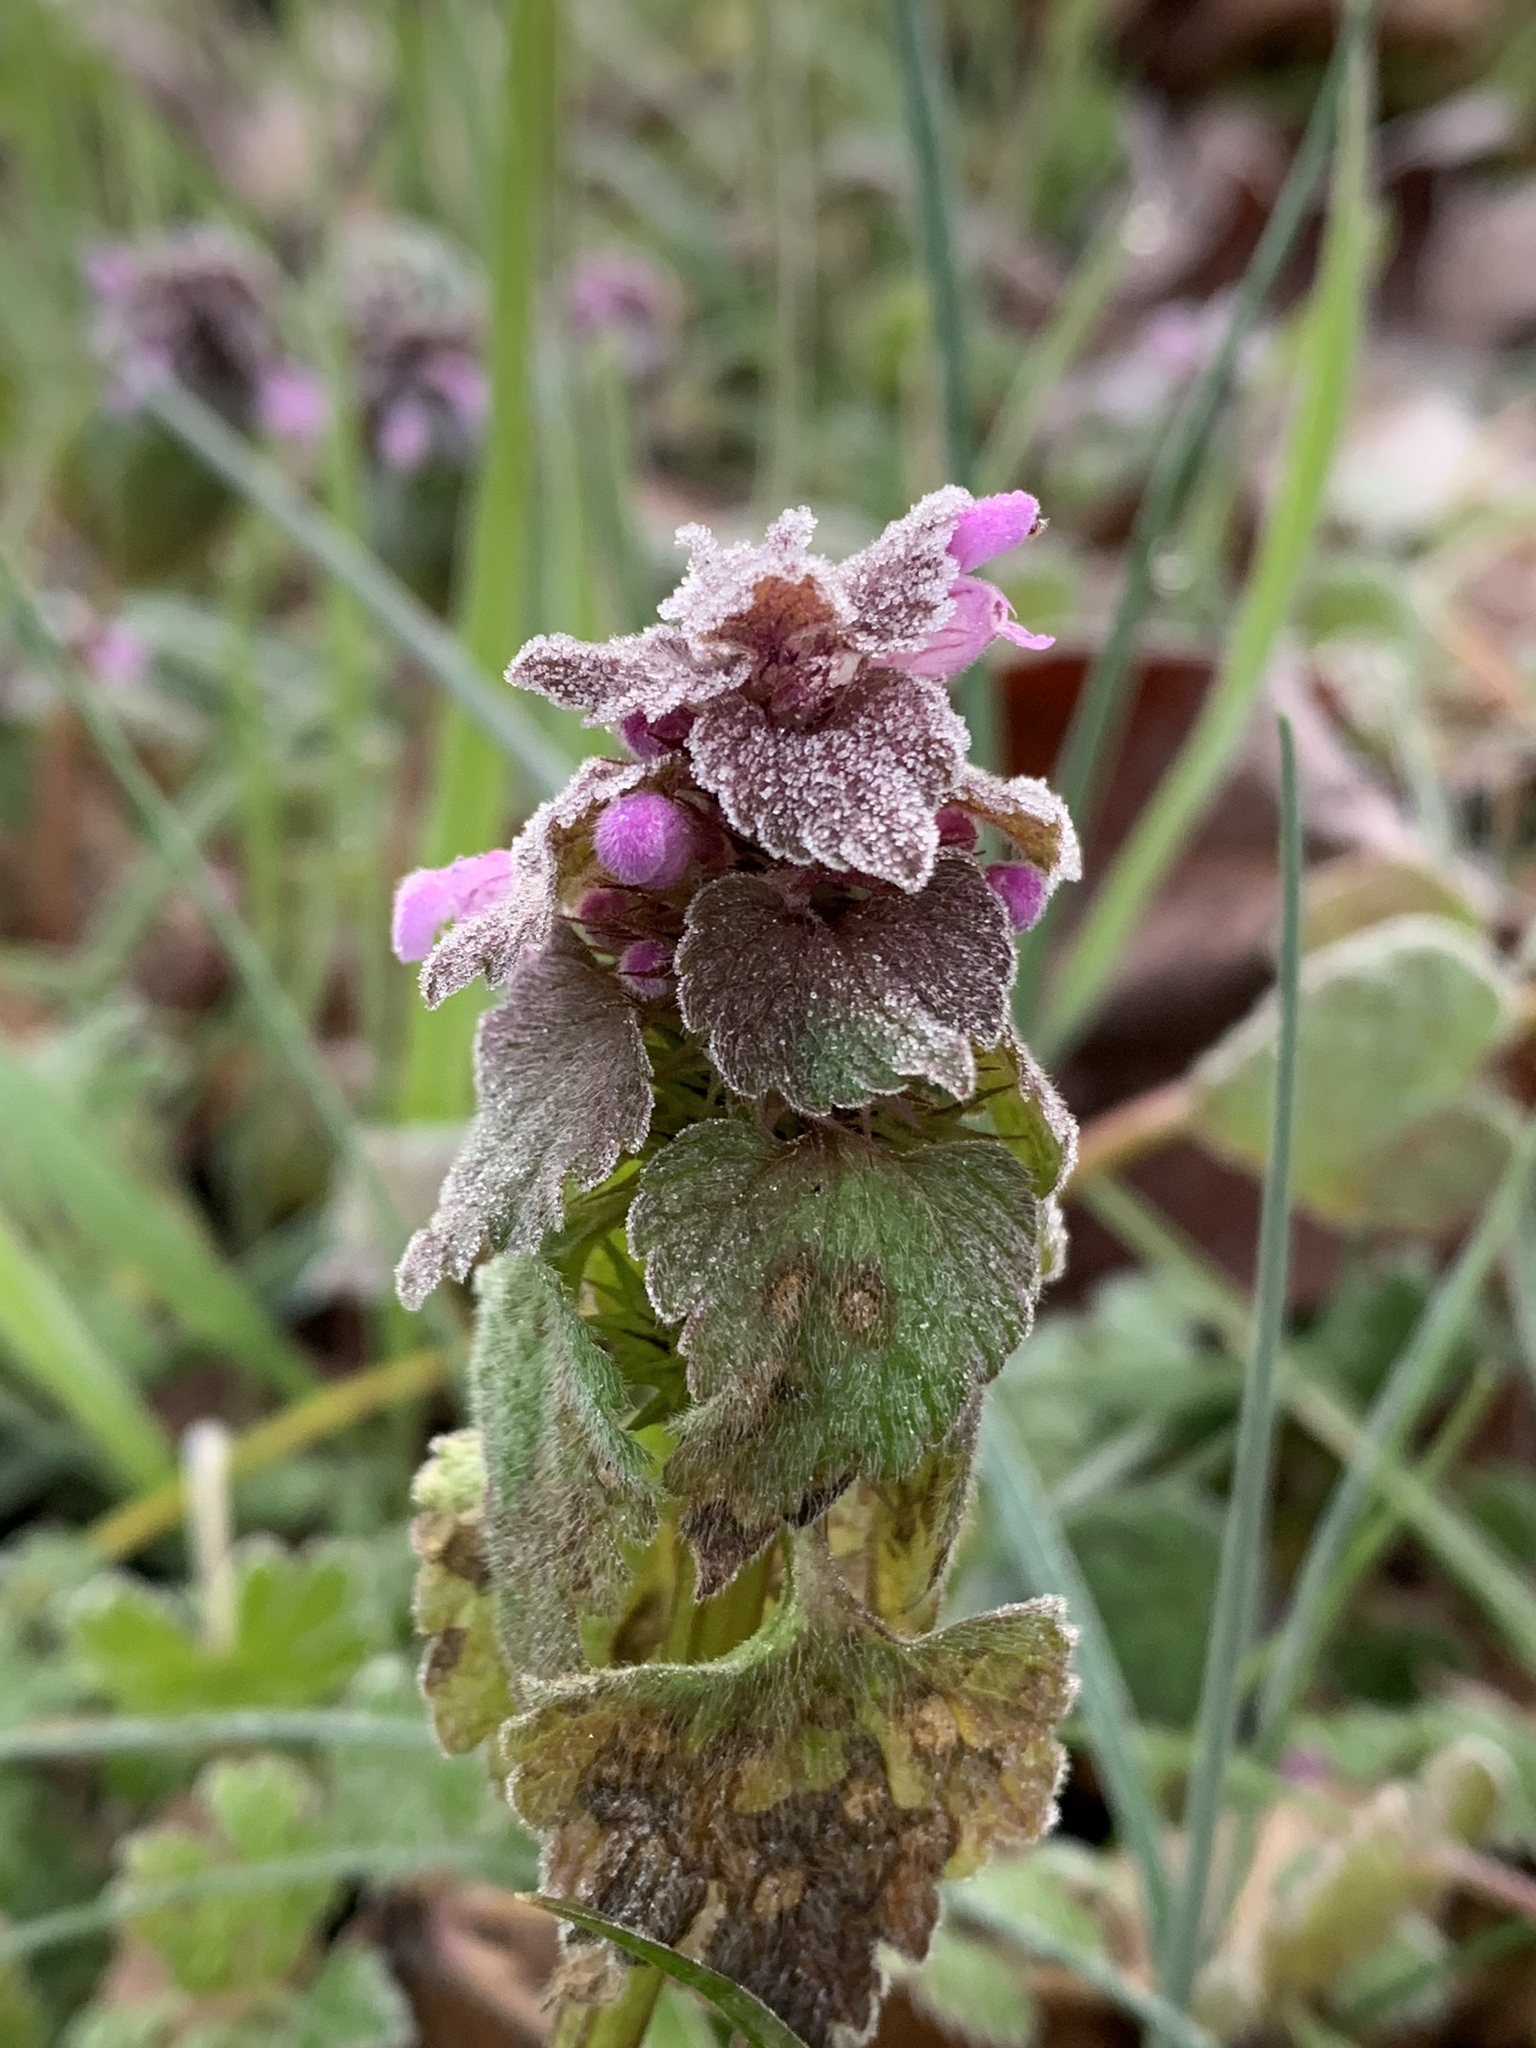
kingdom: Plantae
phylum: Tracheophyta
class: Magnoliopsida
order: Lamiales
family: Lamiaceae
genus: Lamium
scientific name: Lamium purpureum
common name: Red dead-nettle
